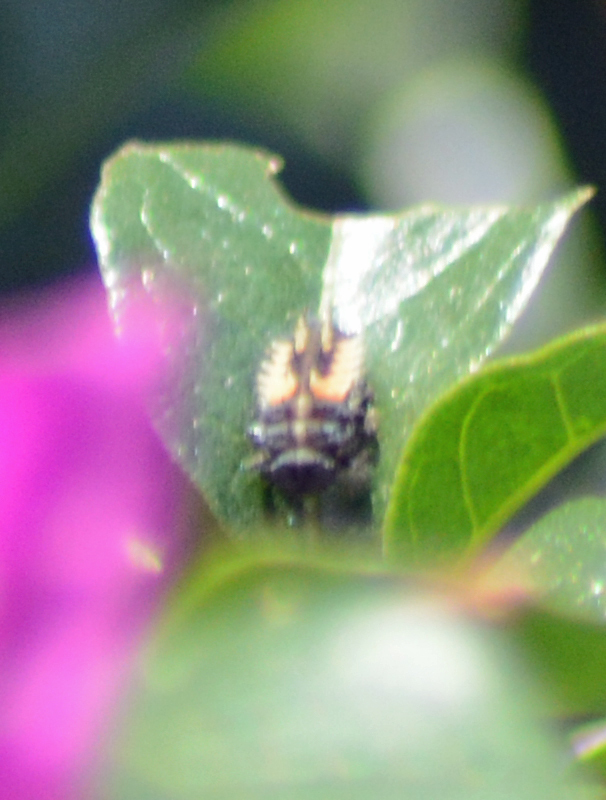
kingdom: Animalia
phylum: Arthropoda
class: Insecta
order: Coleoptera
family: Coccinellidae
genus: Harmonia
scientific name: Harmonia axyridis
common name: Harlequin ladybird
